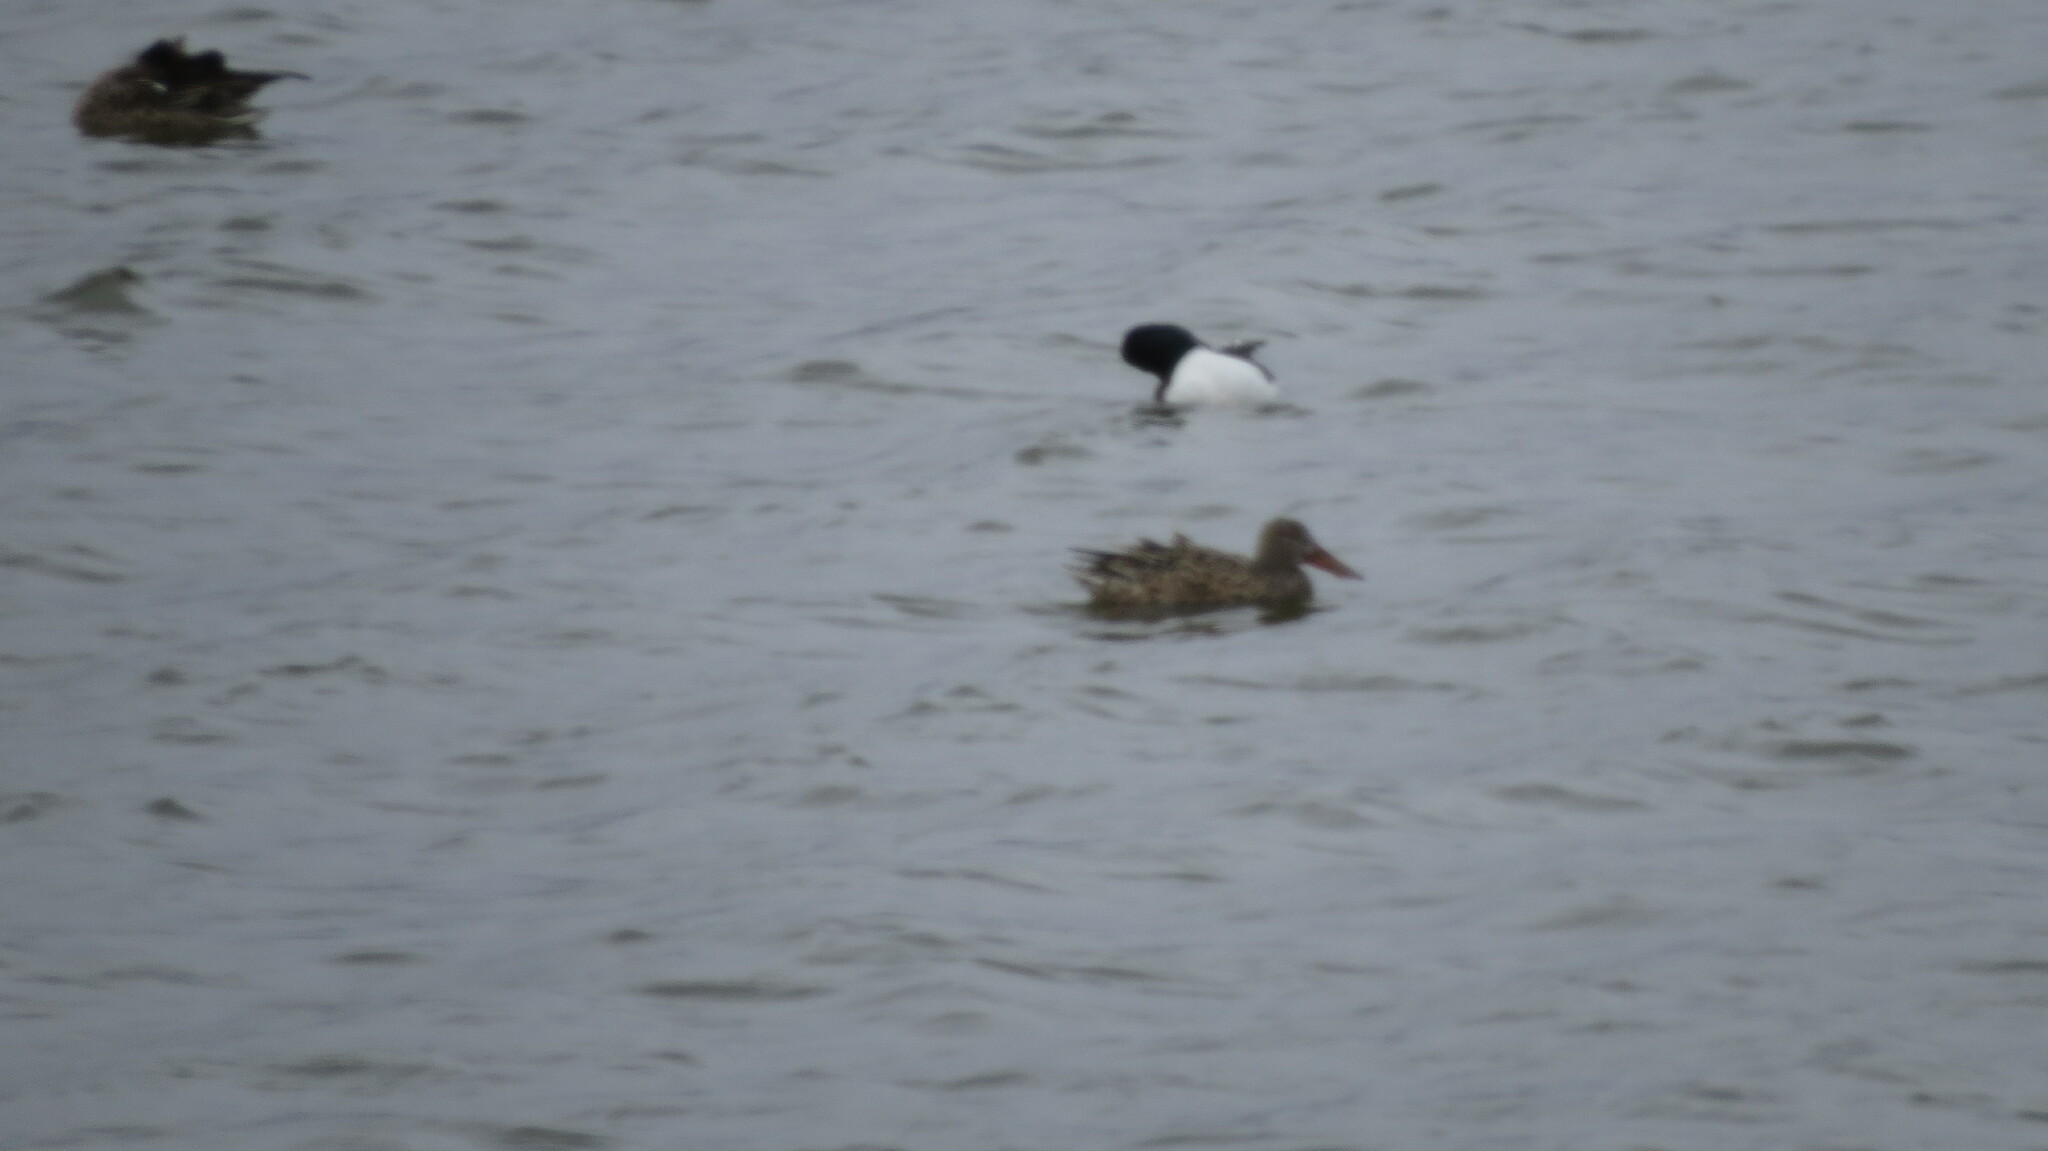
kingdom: Animalia
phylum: Chordata
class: Aves
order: Anseriformes
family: Anatidae
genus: Spatula
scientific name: Spatula clypeata
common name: Northern shoveler
